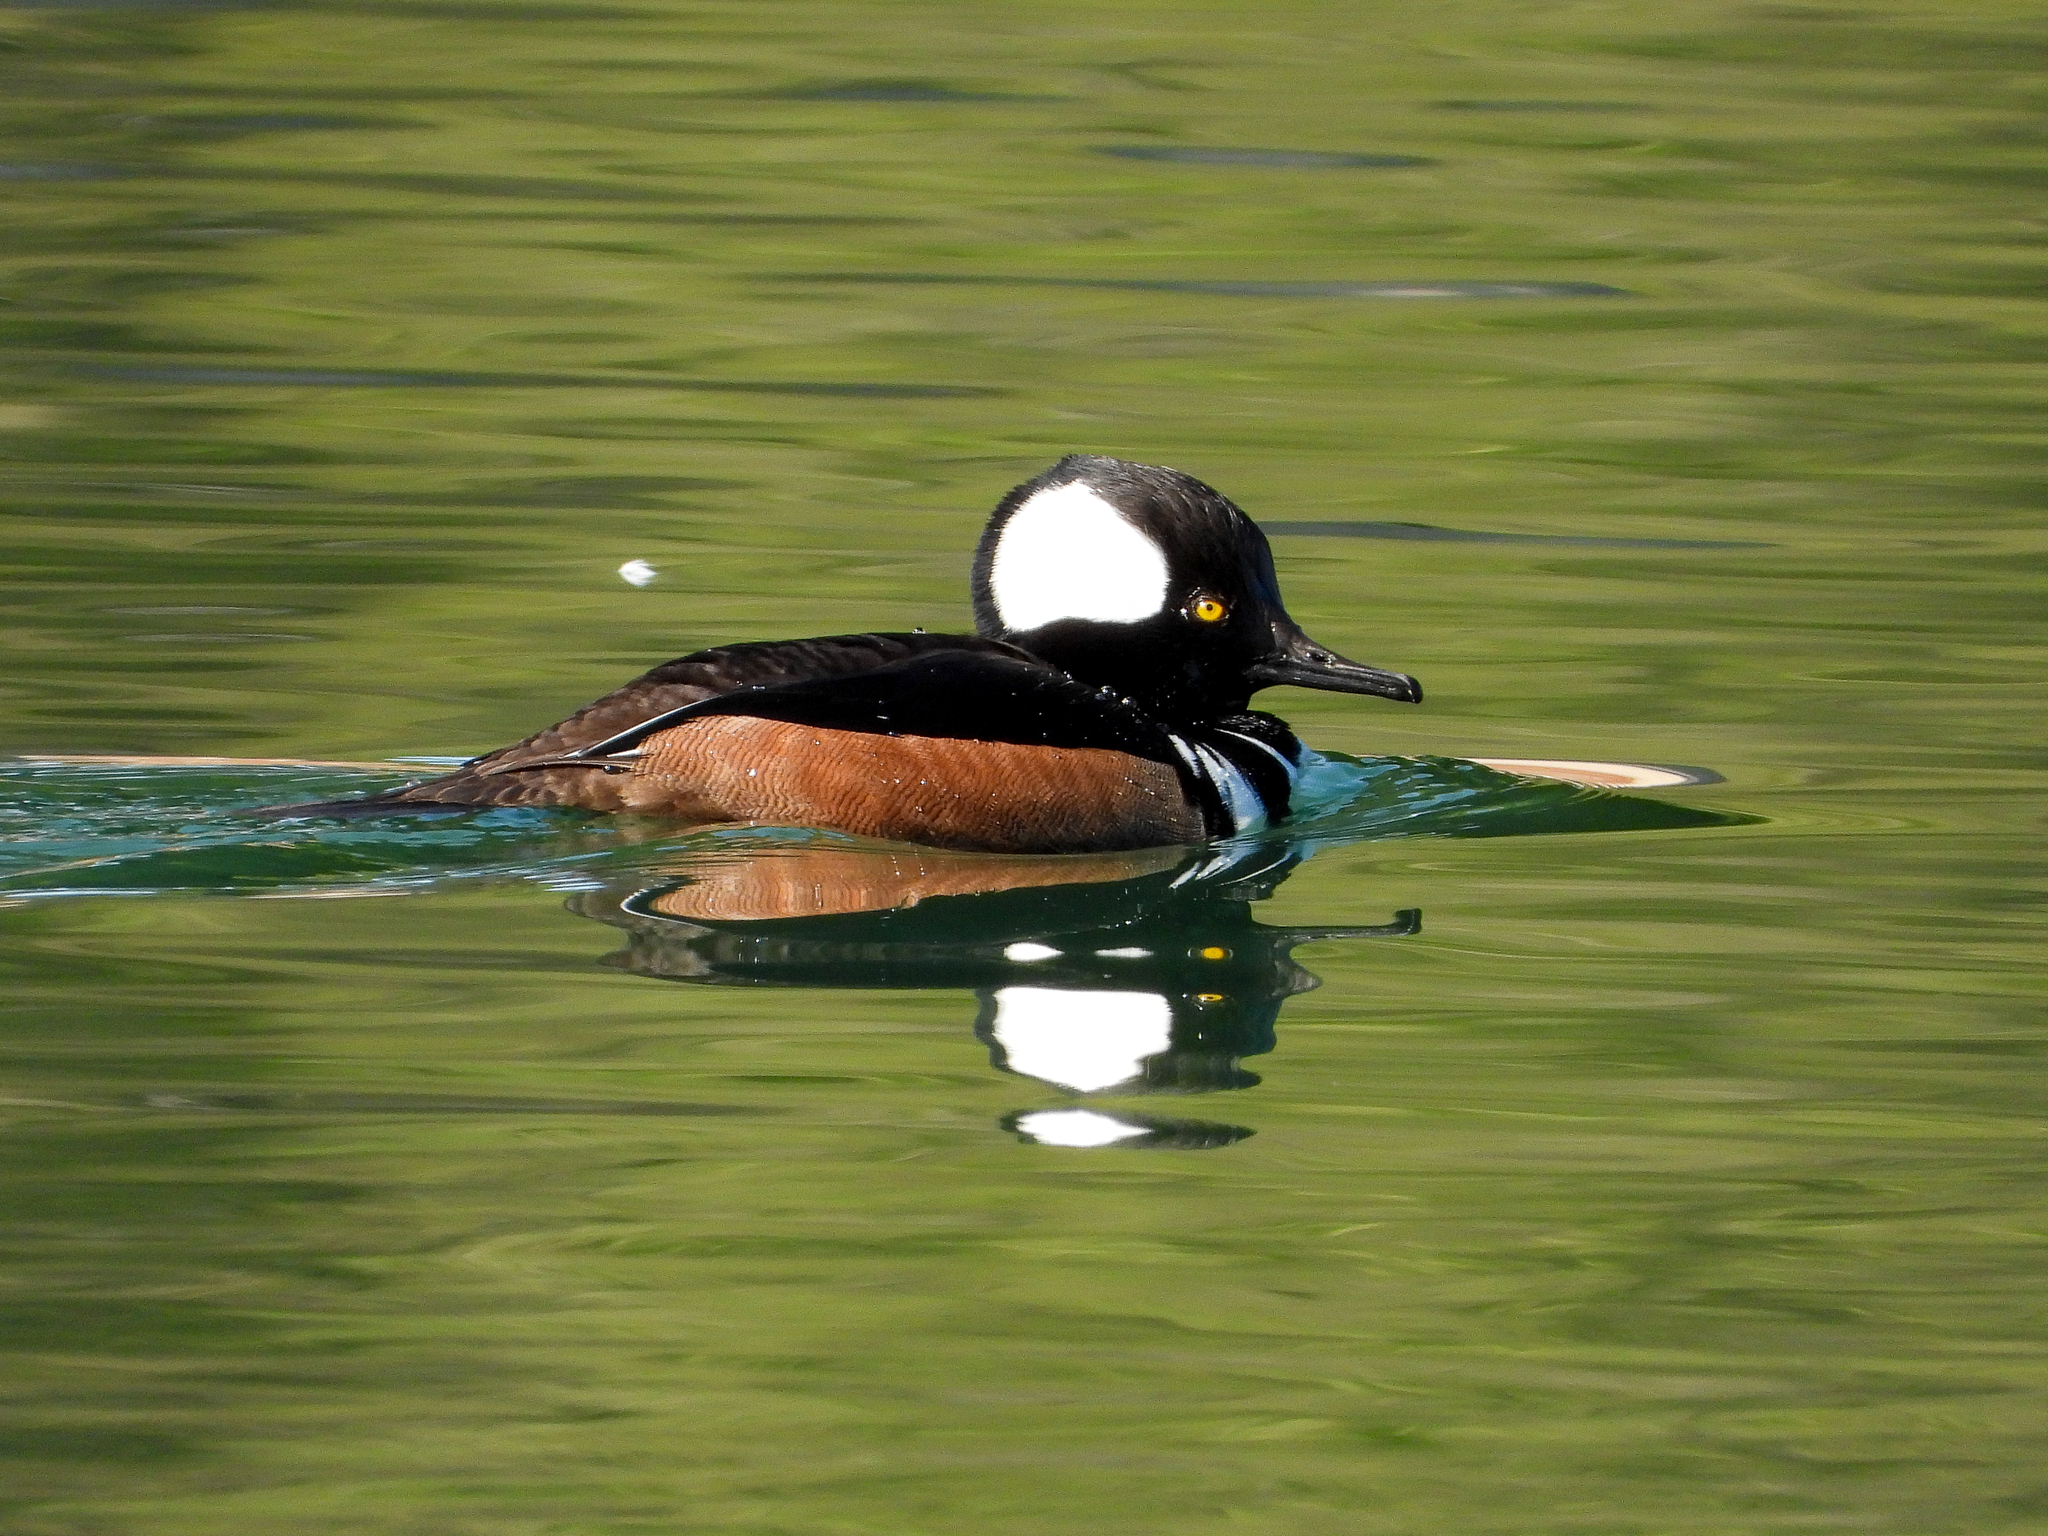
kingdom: Animalia
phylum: Chordata
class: Aves
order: Anseriformes
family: Anatidae
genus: Lophodytes
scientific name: Lophodytes cucullatus
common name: Hooded merganser
